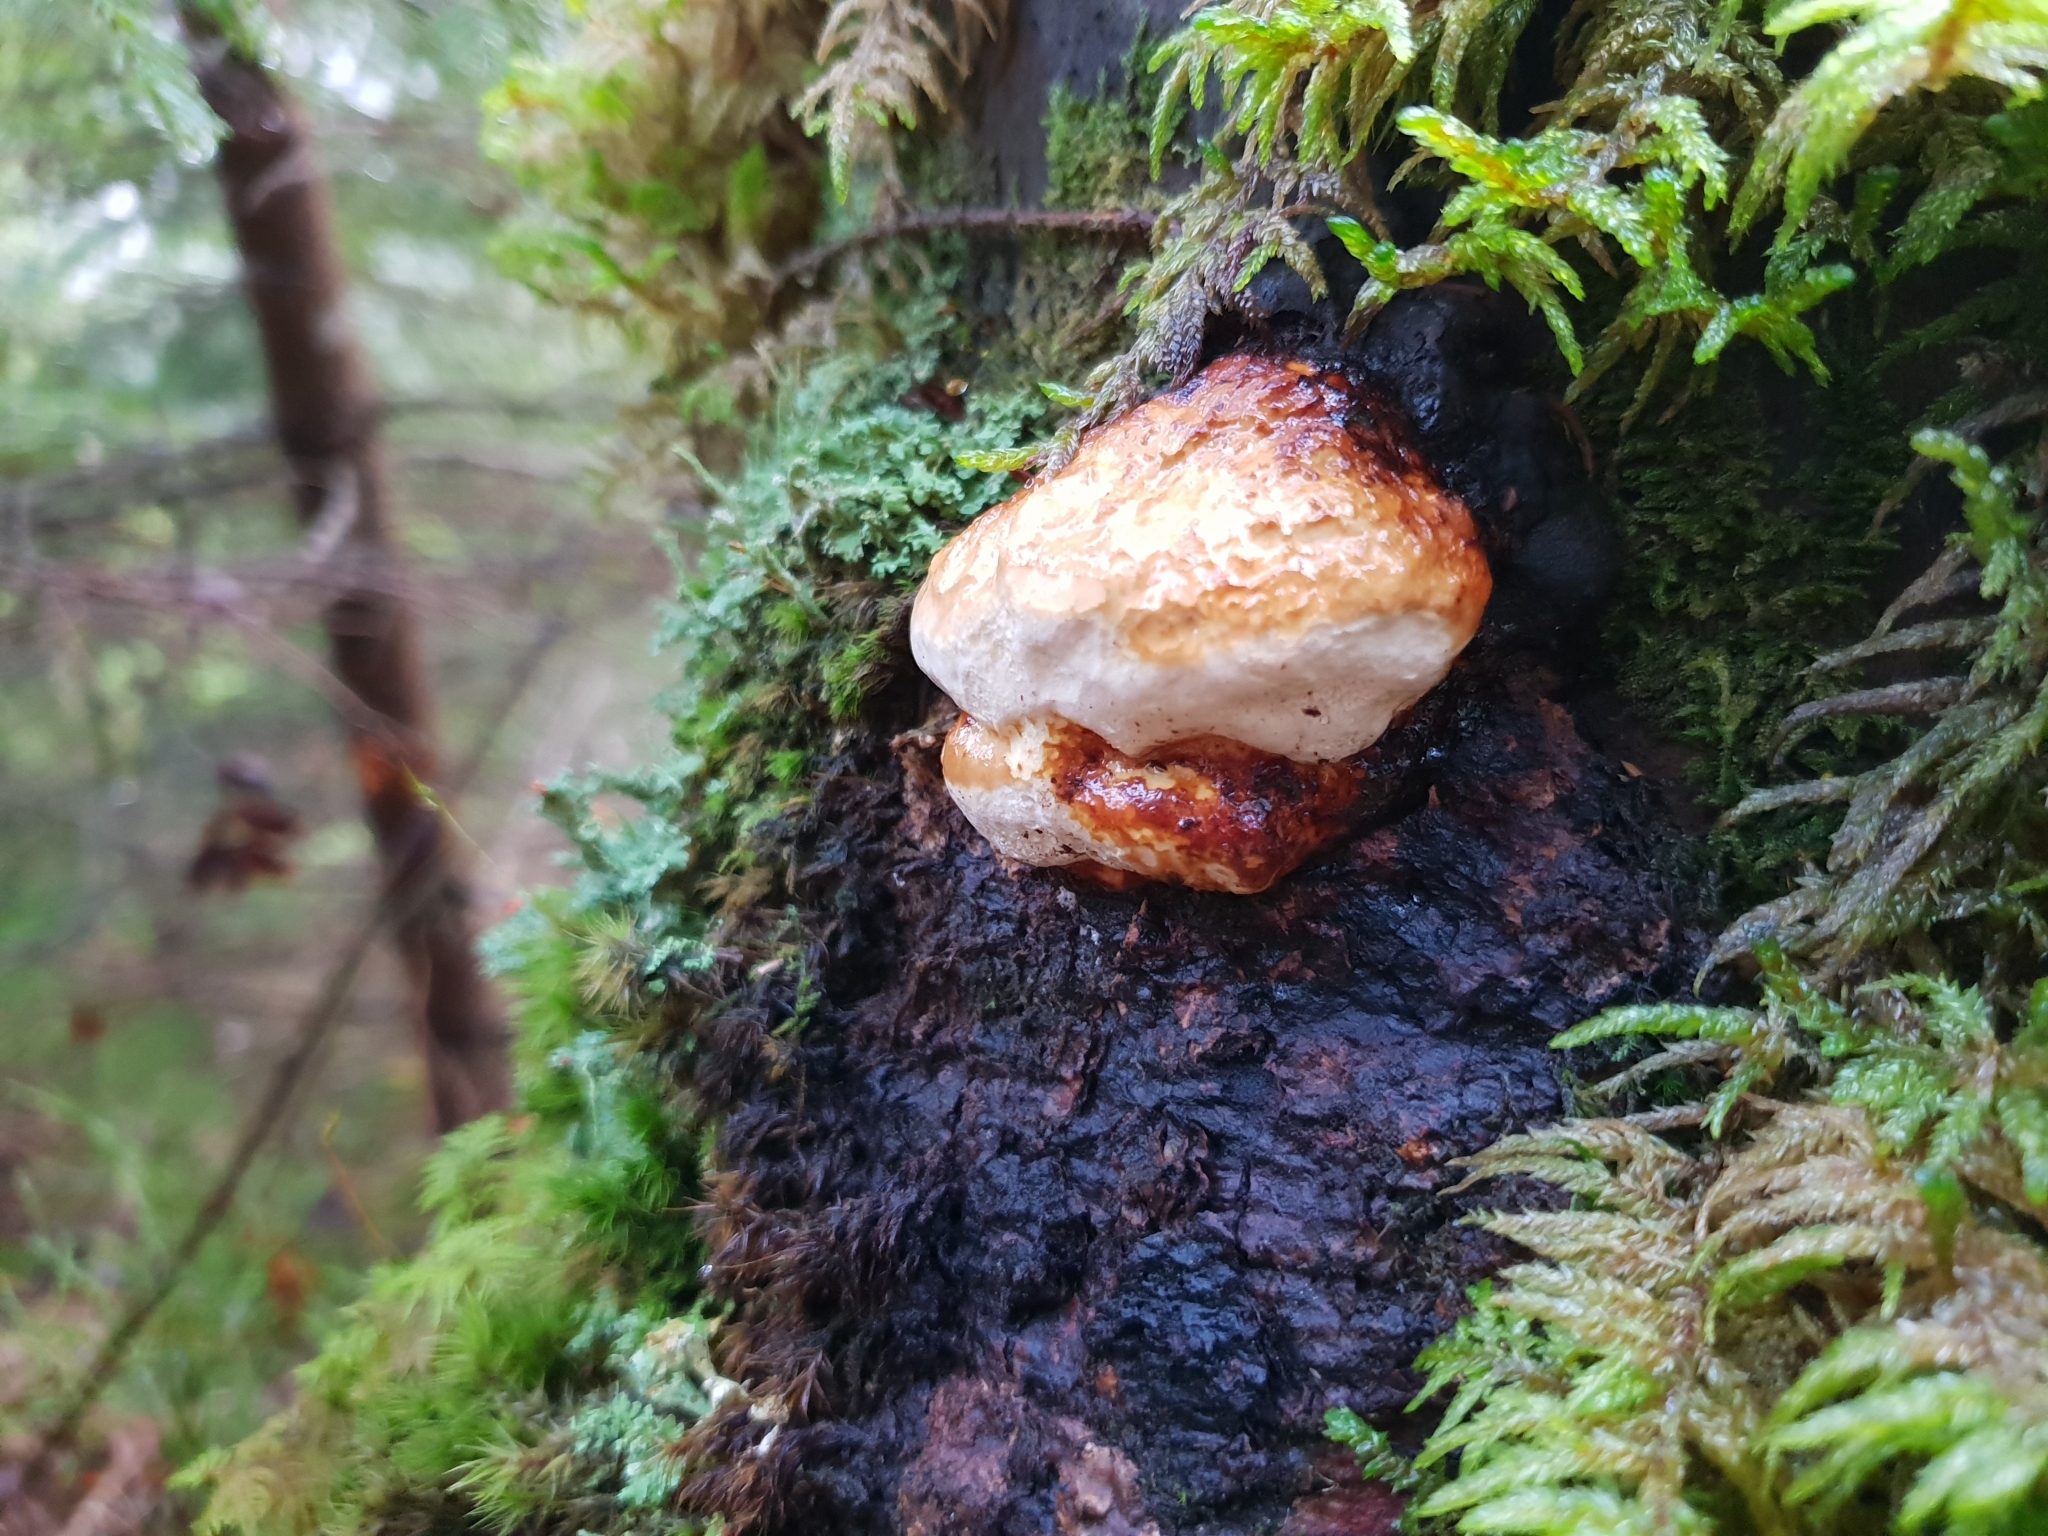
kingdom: Fungi
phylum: Basidiomycota
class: Agaricomycetes
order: Polyporales
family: Fomitopsidaceae
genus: Fomitopsis
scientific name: Fomitopsis pinicola
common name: Red-belted bracket
